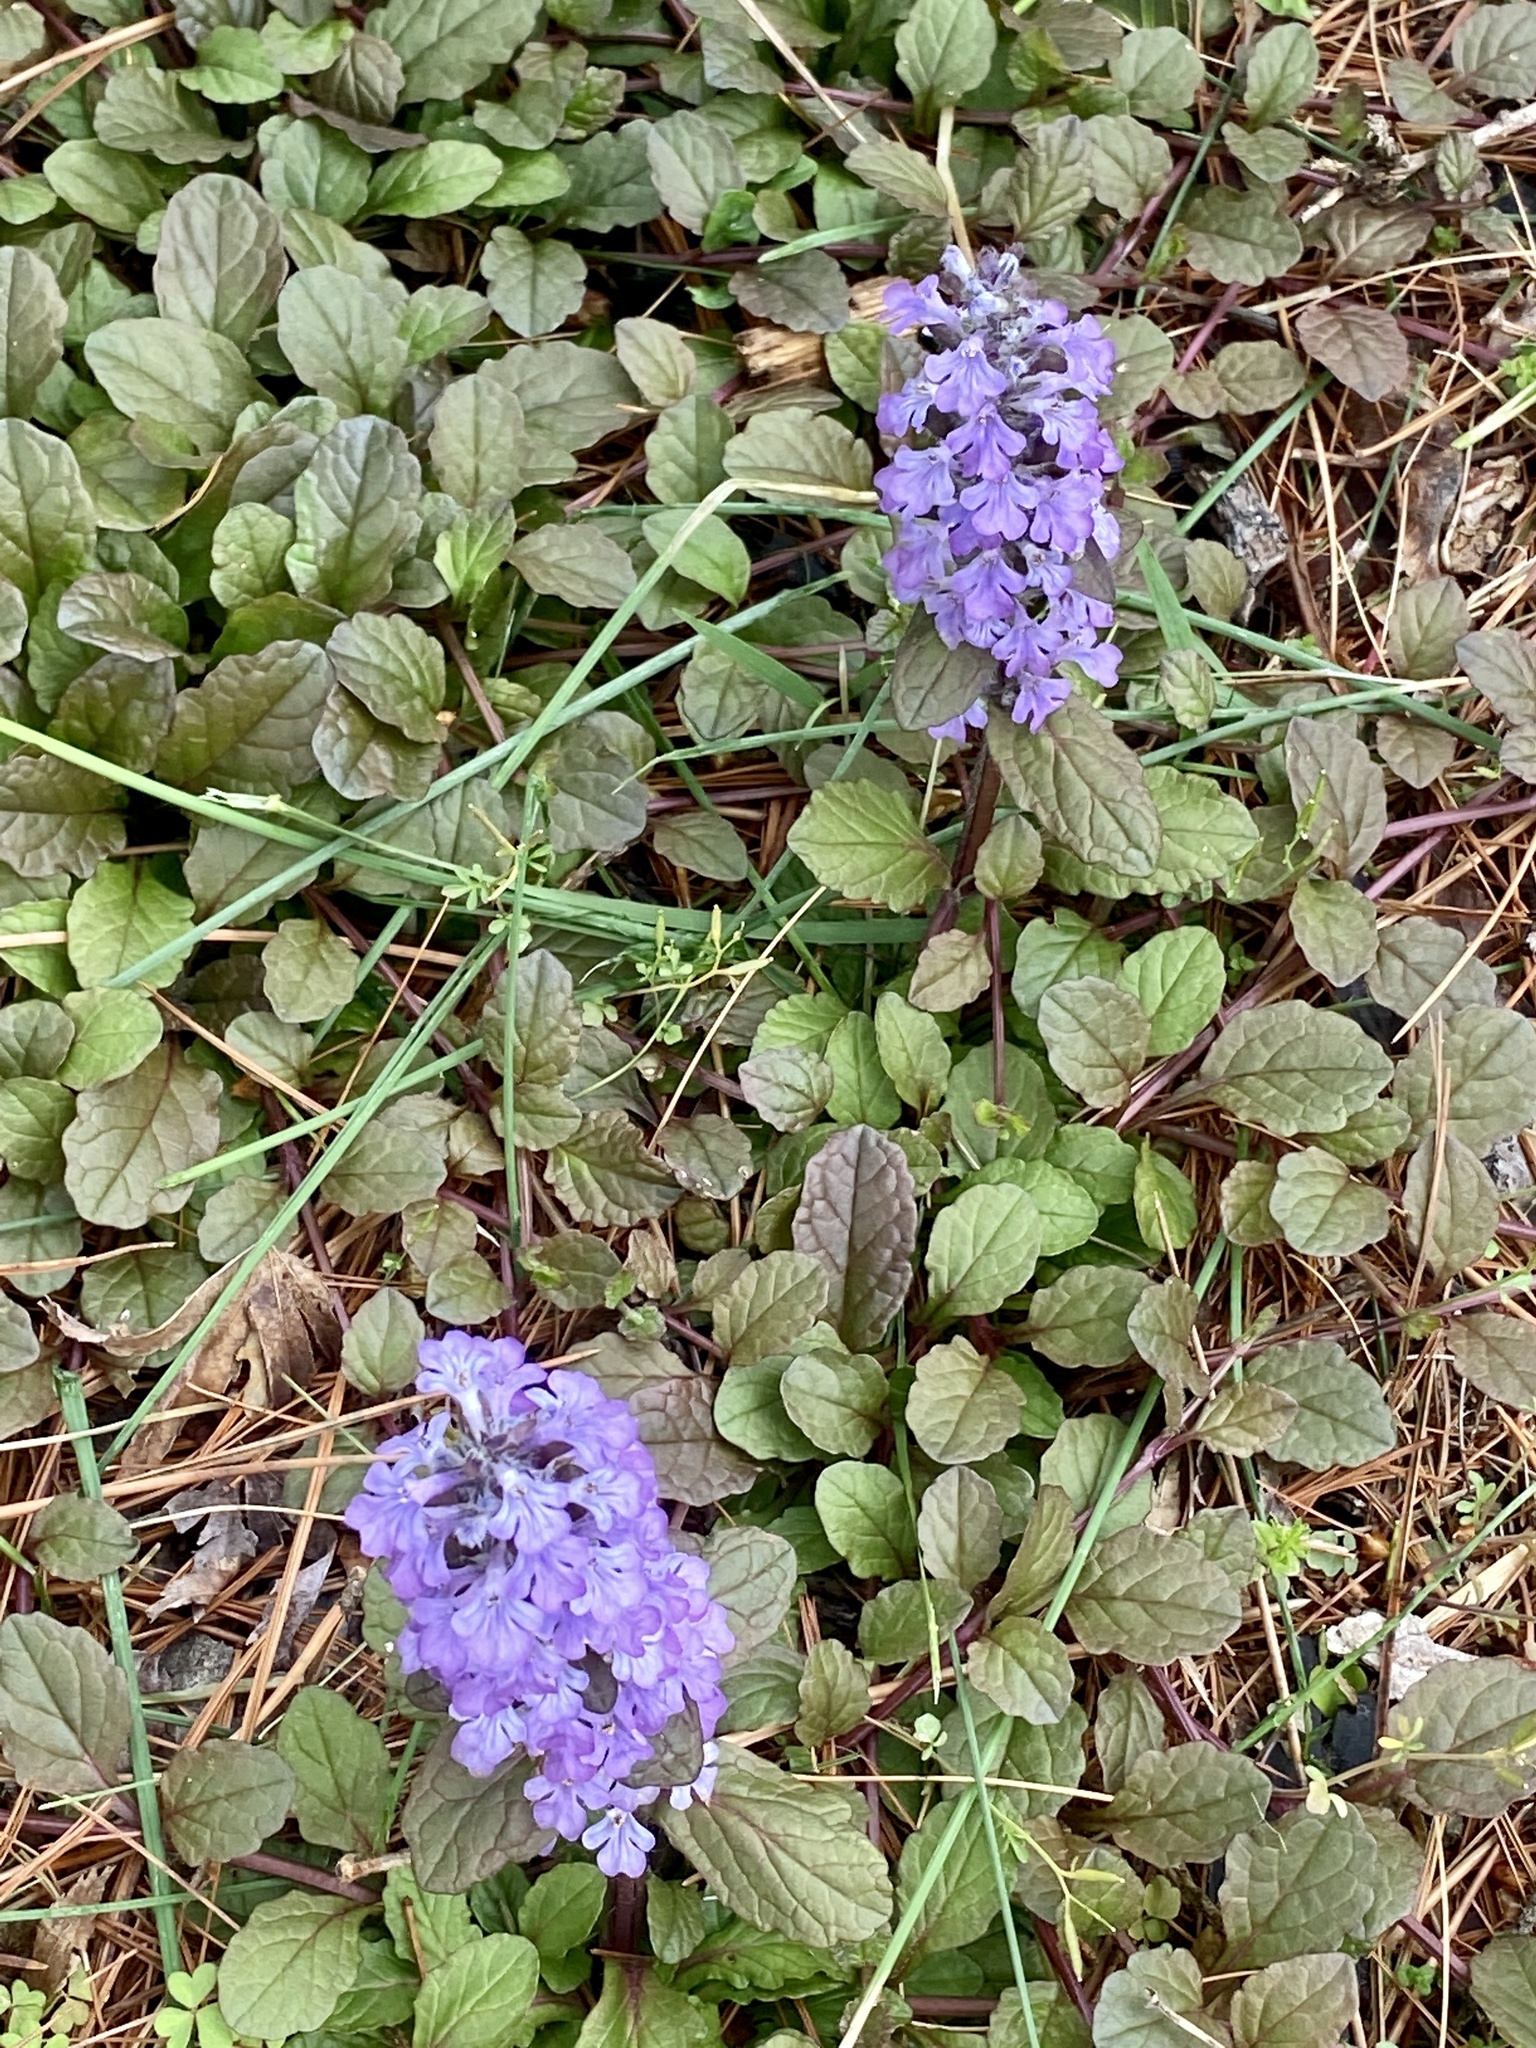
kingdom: Plantae
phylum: Tracheophyta
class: Magnoliopsida
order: Lamiales
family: Lamiaceae
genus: Ajuga
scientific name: Ajuga reptans
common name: Bugle
